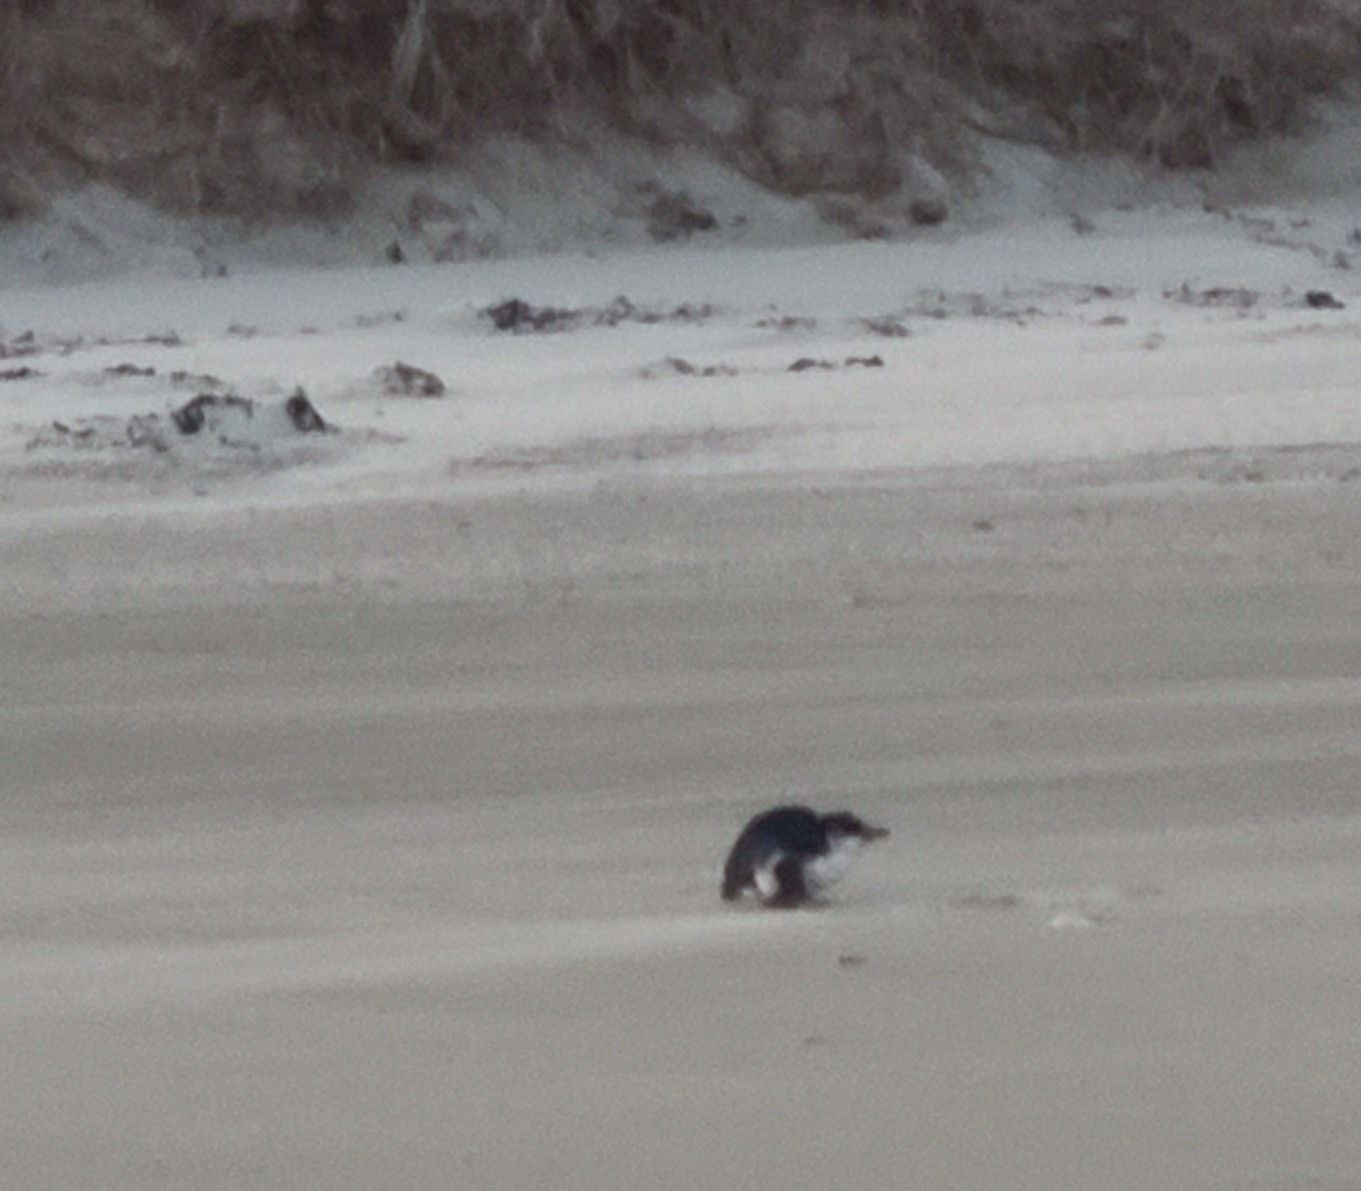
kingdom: Animalia
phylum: Chordata
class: Aves
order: Sphenisciformes
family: Spheniscidae
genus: Eudyptula
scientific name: Eudyptula minor
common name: Little penguin
